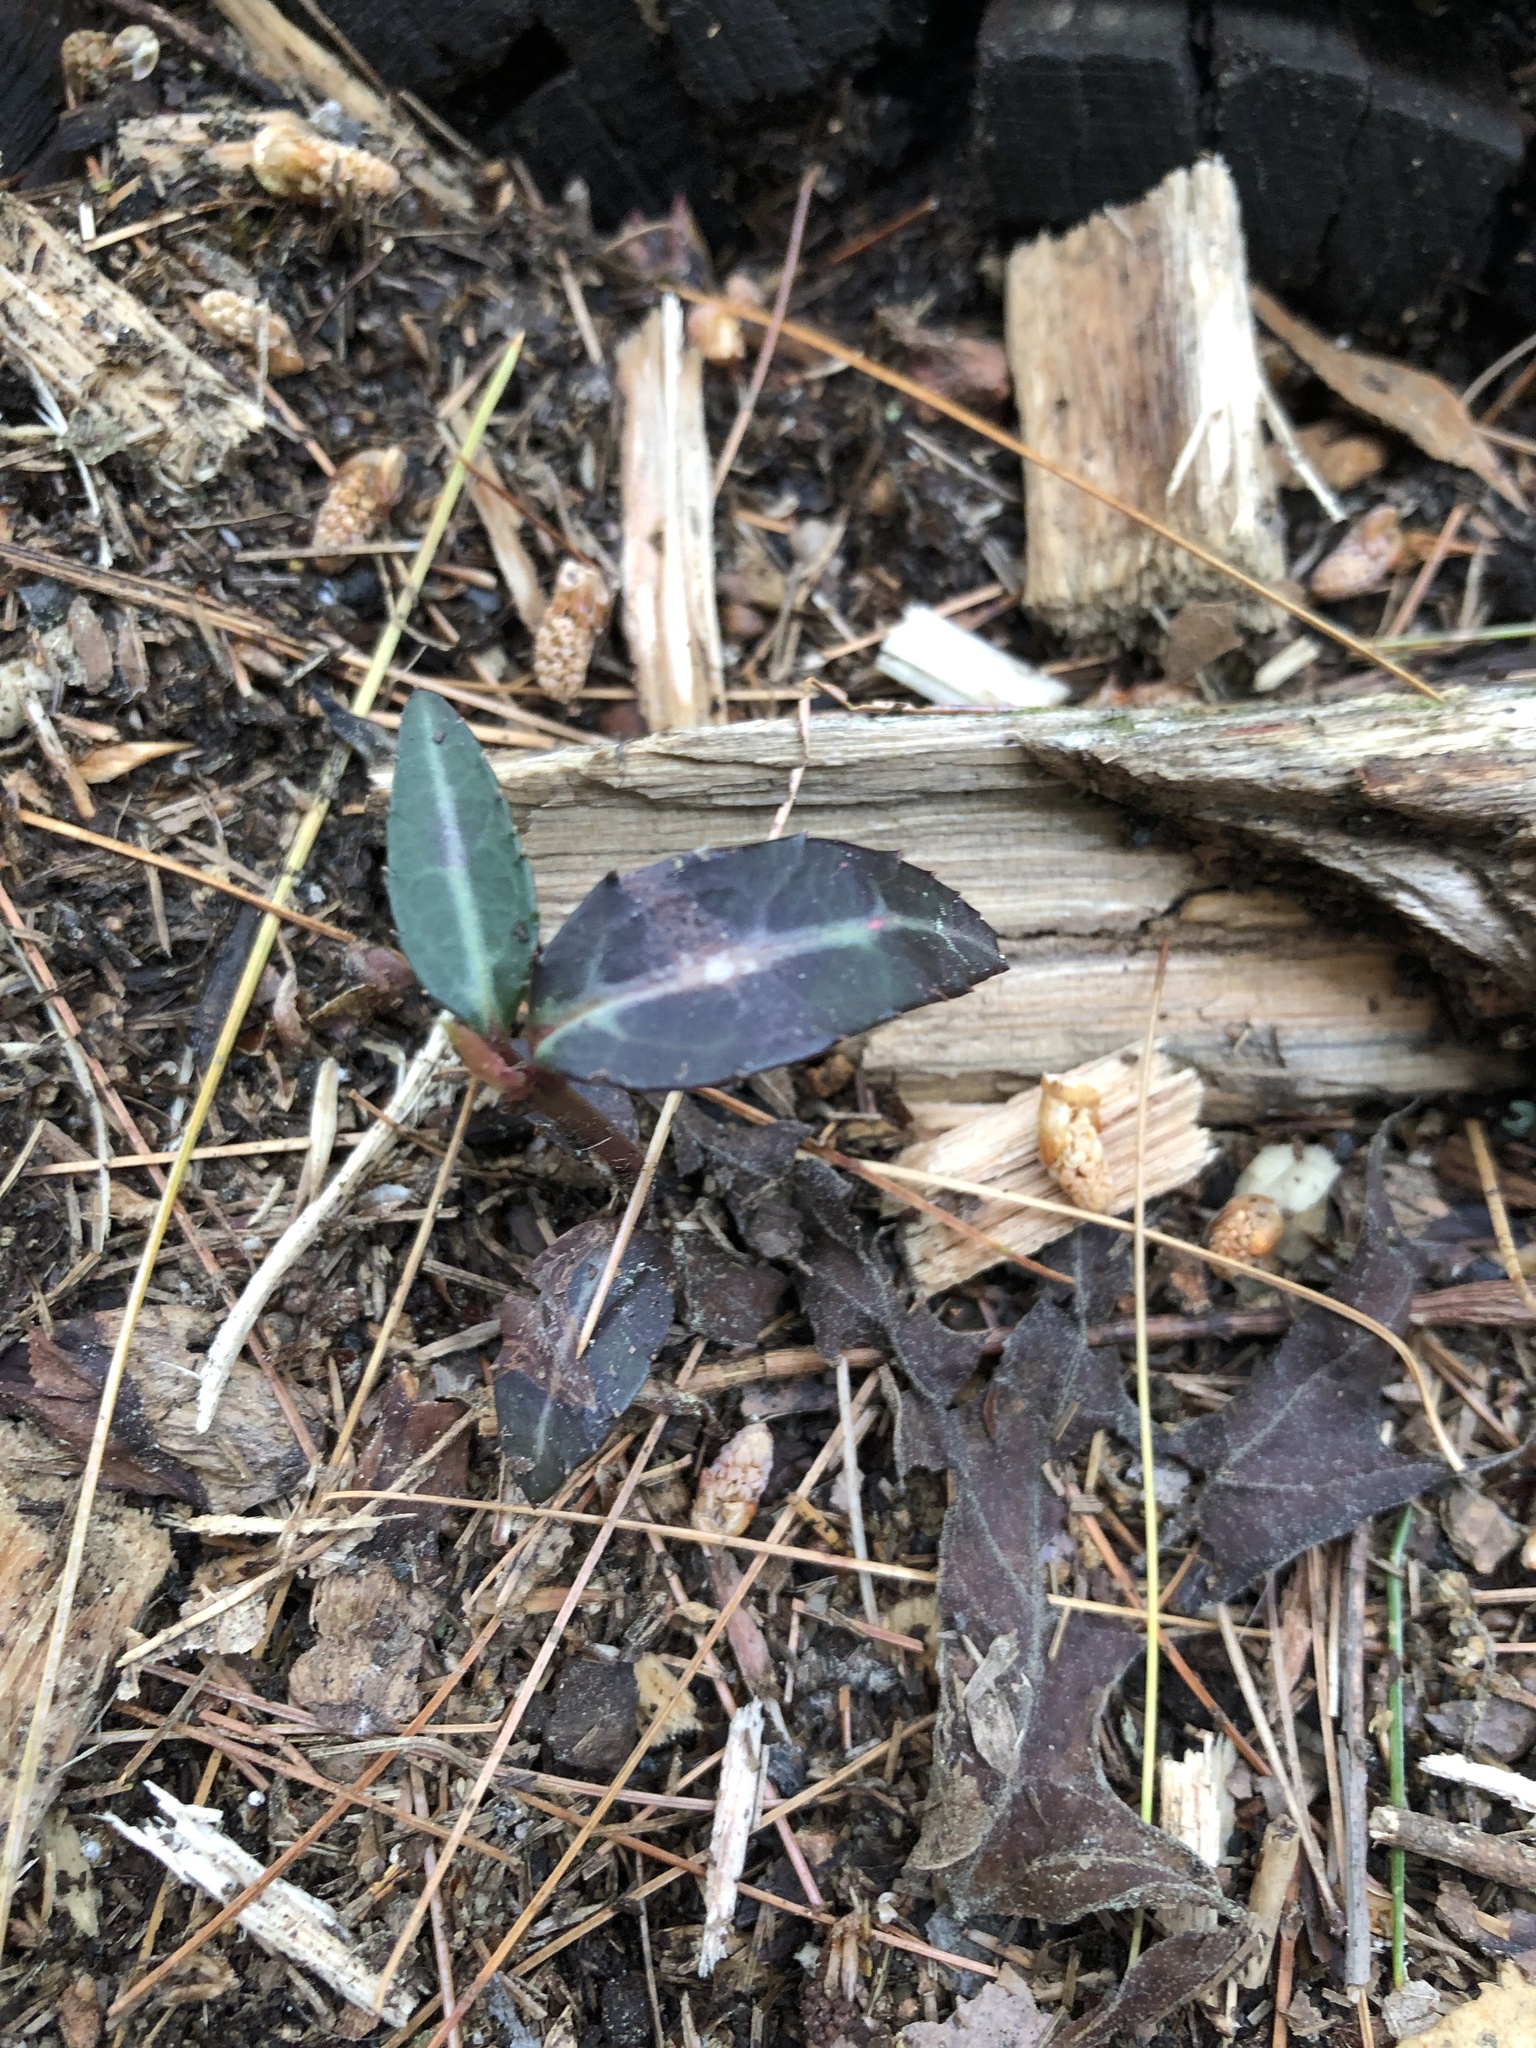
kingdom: Plantae
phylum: Tracheophyta
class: Magnoliopsida
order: Ericales
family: Ericaceae
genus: Chimaphila
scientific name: Chimaphila maculata
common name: Spotted pipsissewa
